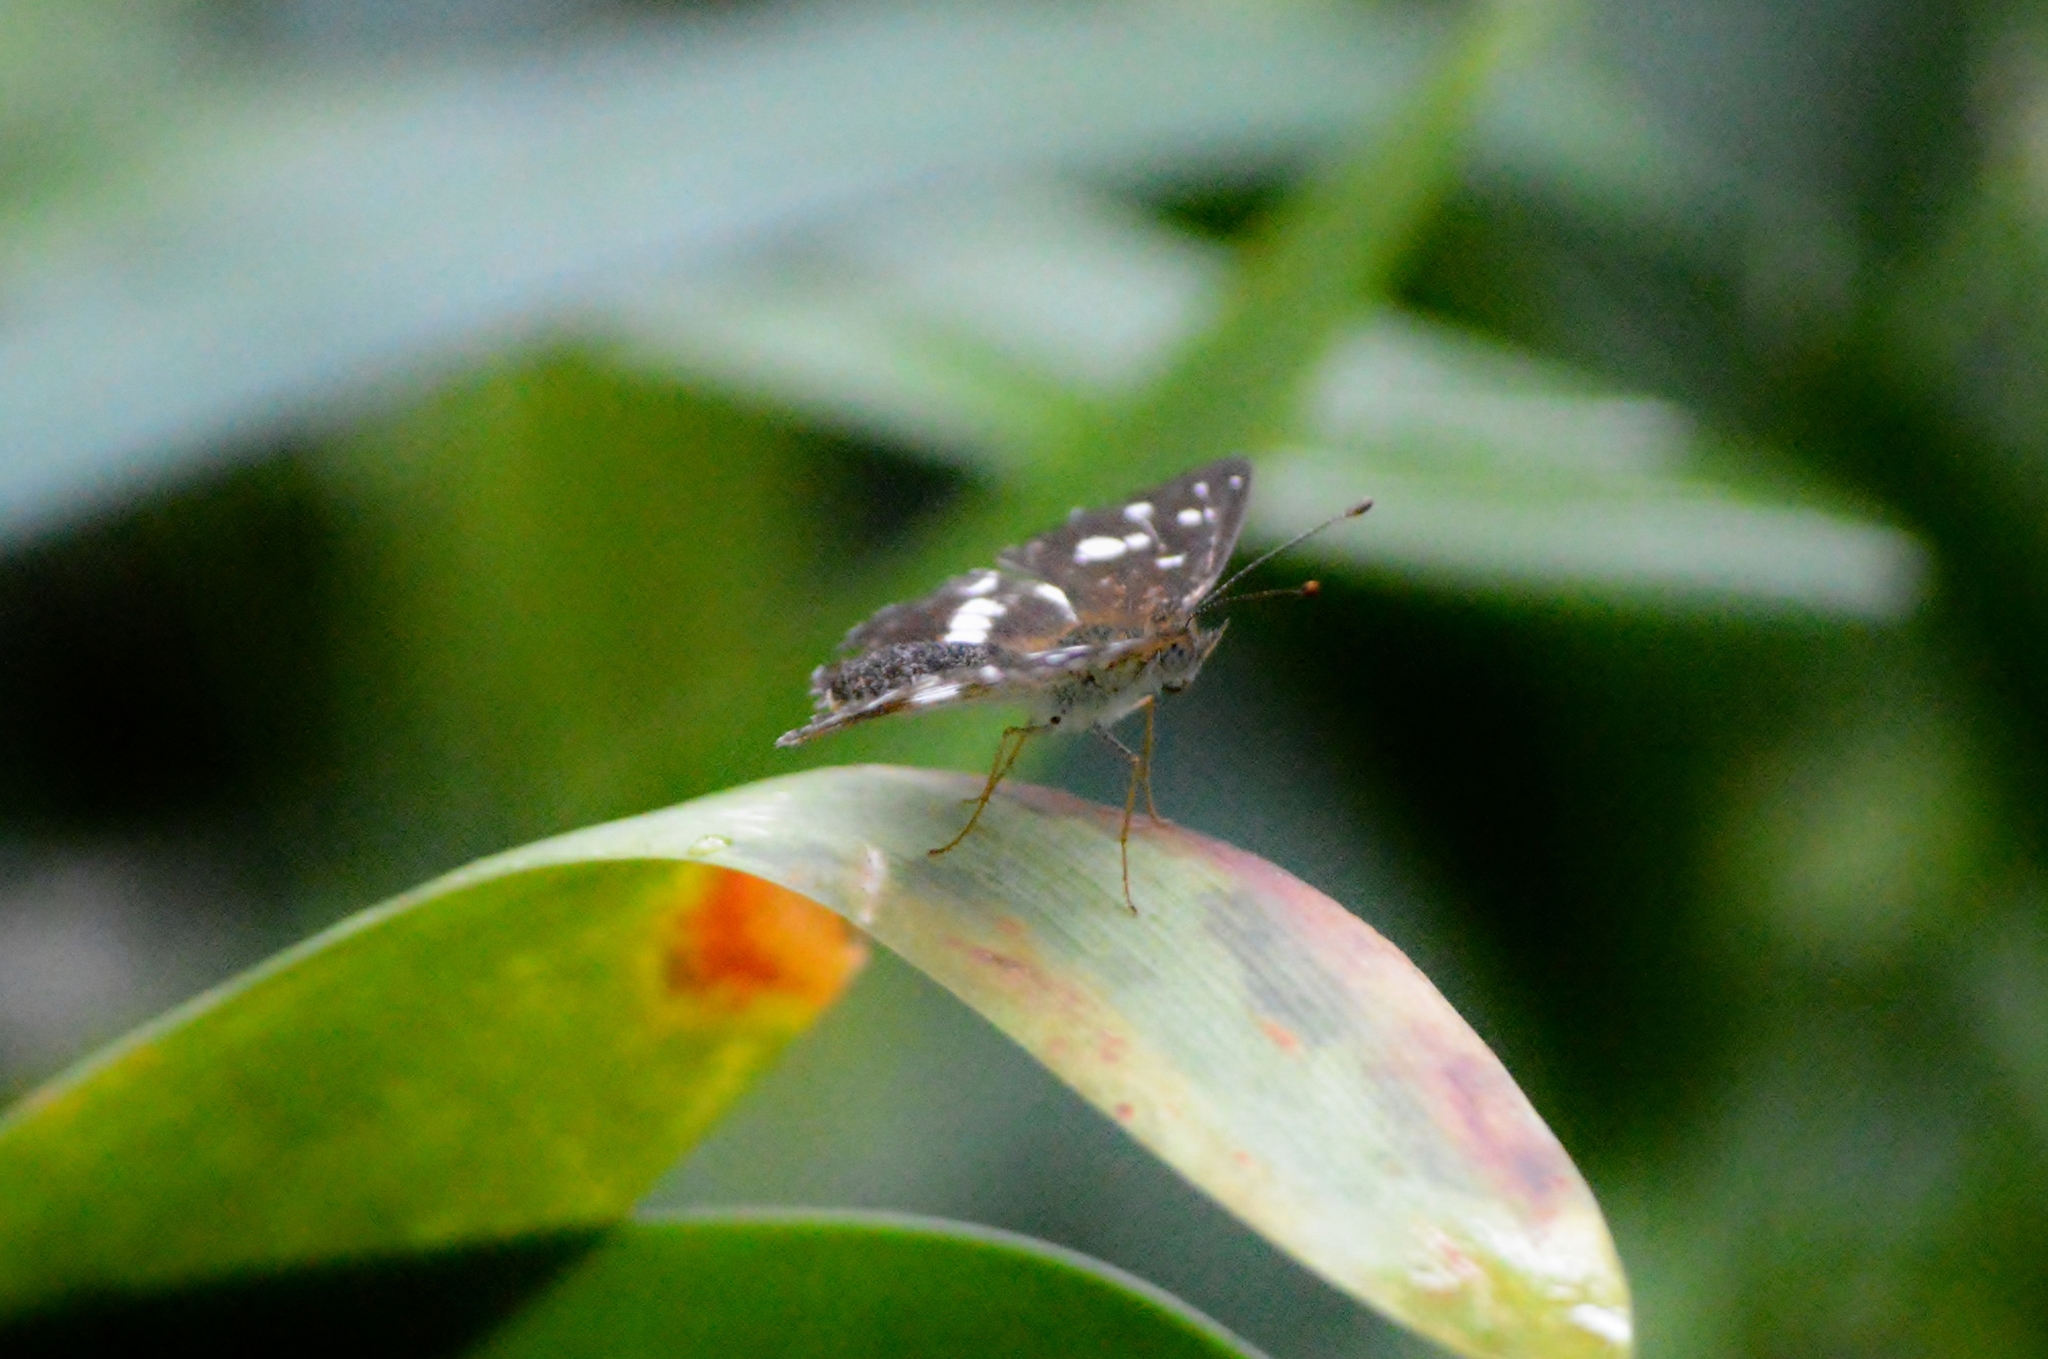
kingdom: Animalia
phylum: Arthropoda
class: Insecta
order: Lepidoptera
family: Nymphalidae
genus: Ortilia
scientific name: Ortilia ithra
